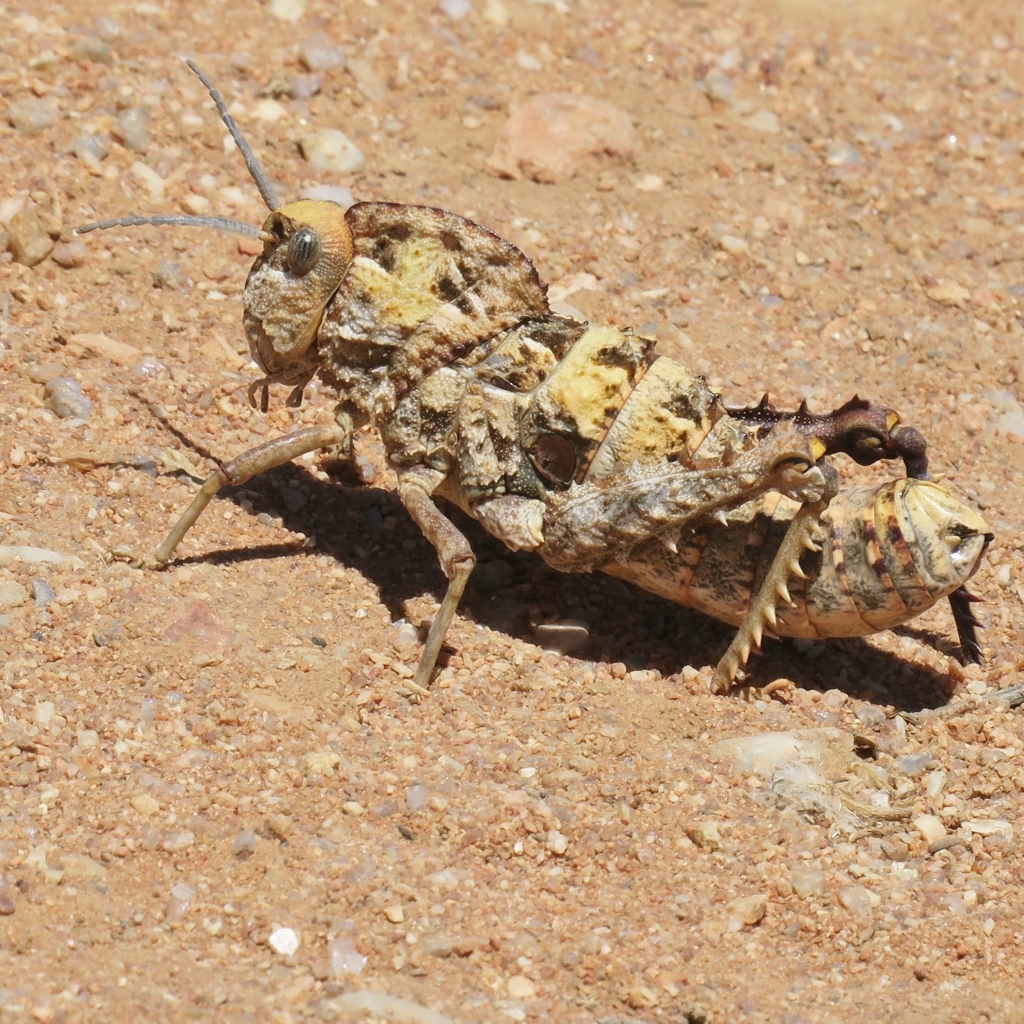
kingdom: Animalia
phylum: Arthropoda
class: Insecta
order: Orthoptera
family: Pamphagidae
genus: Porthetis
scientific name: Porthetis carinata
